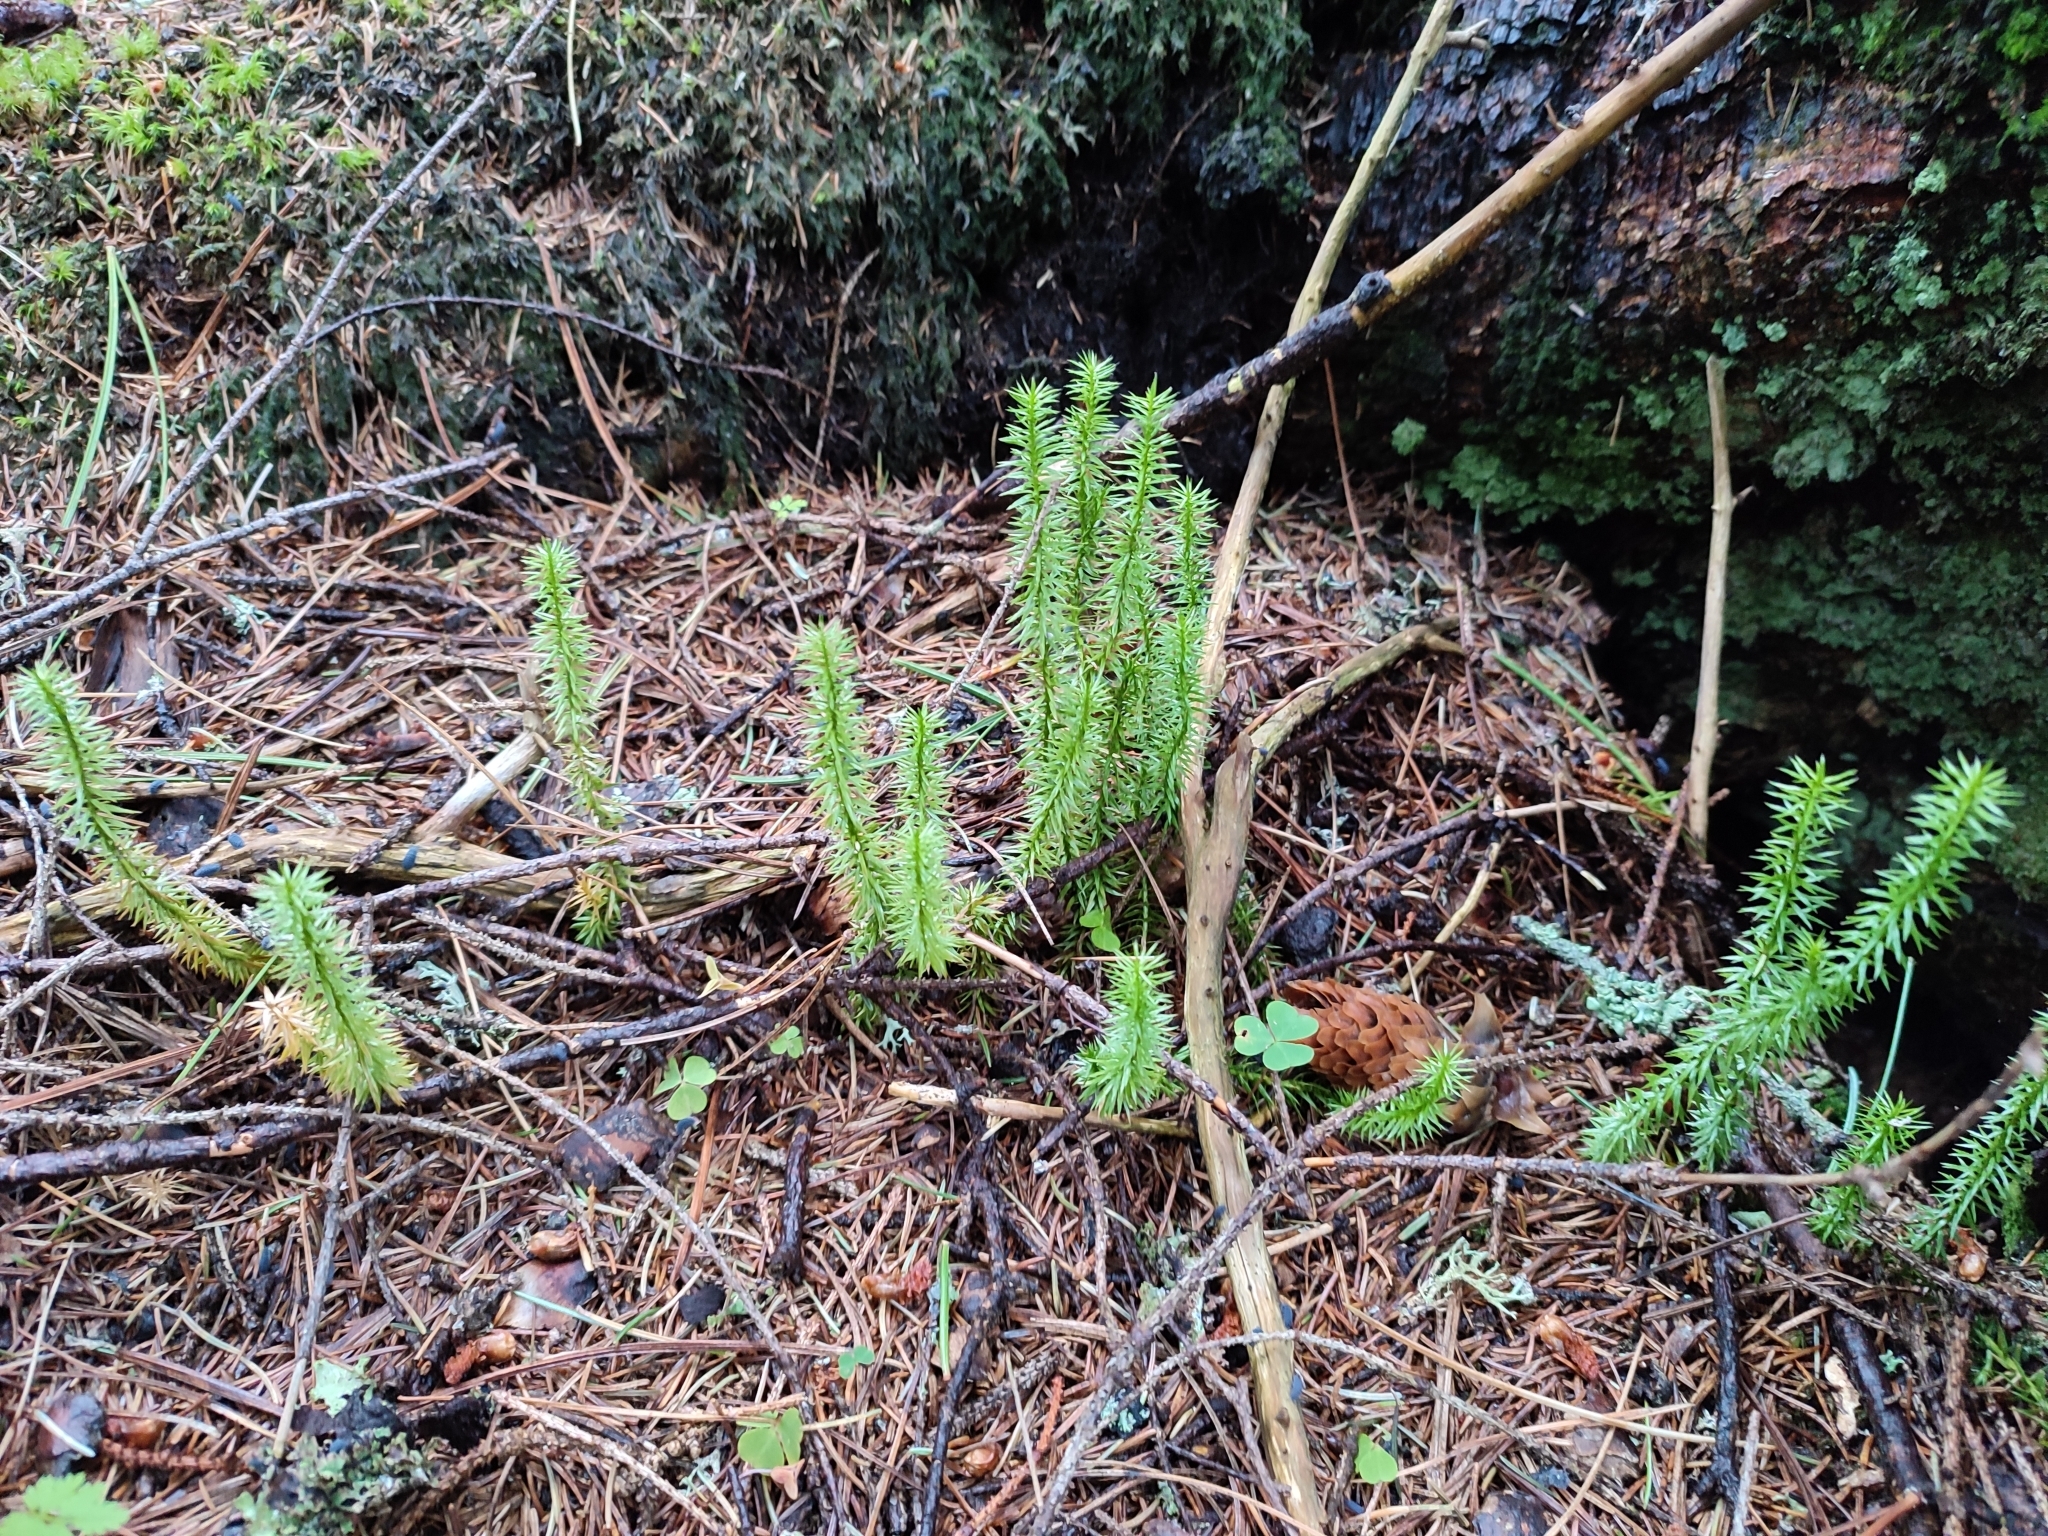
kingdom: Plantae
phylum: Tracheophyta
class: Lycopodiopsida
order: Lycopodiales
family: Lycopodiaceae
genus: Spinulum
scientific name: Spinulum annotinum
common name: Interrupted club-moss
